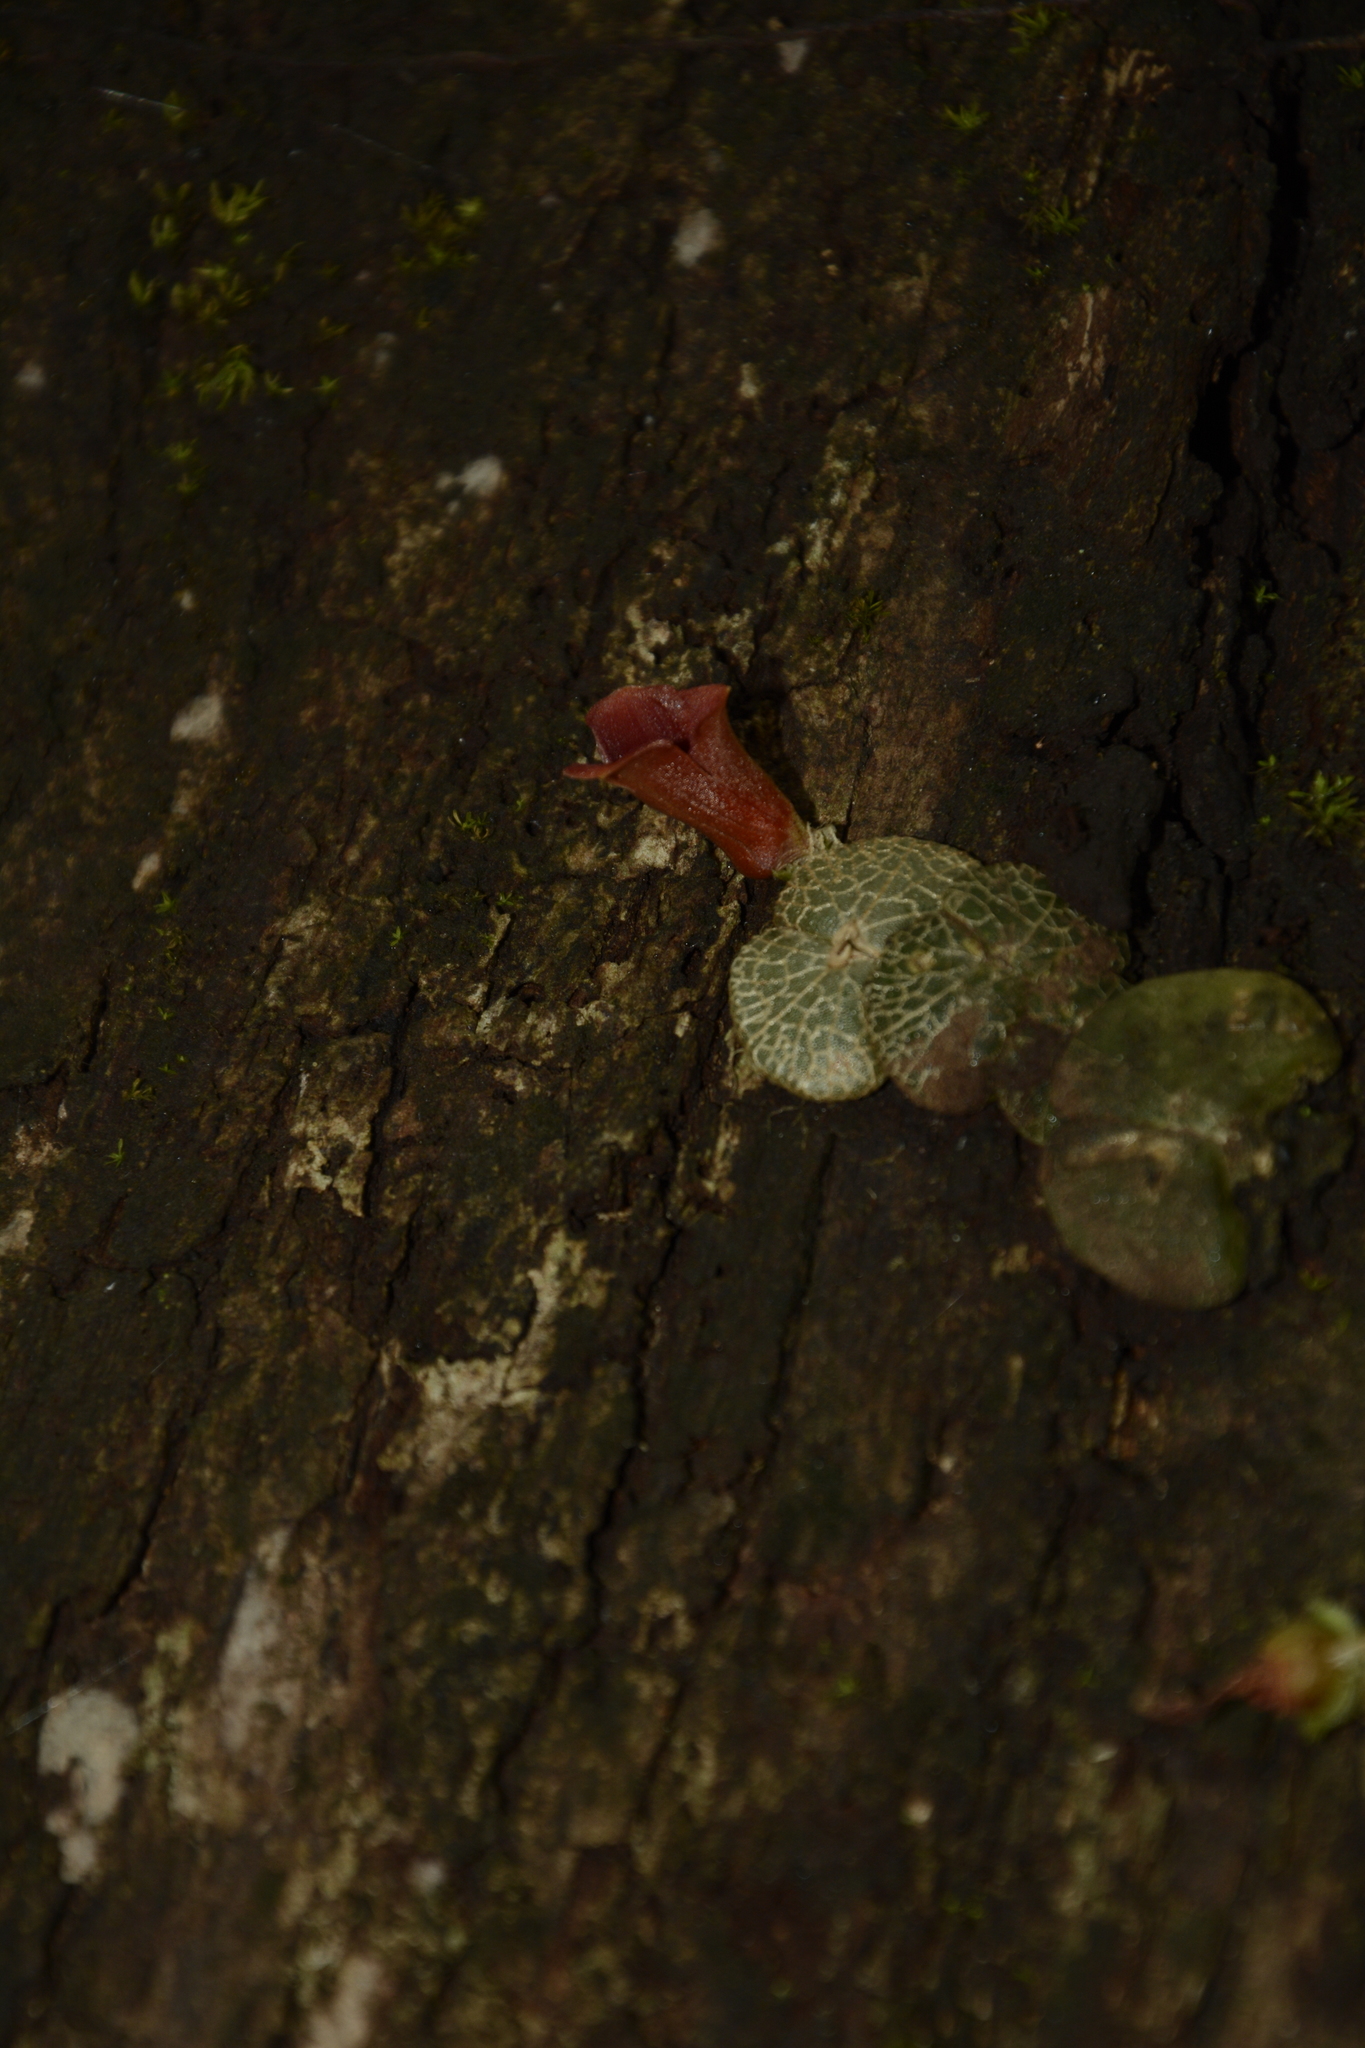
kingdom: Plantae
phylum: Tracheophyta
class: Liliopsida
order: Asparagales
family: Orchidaceae
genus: Porpax
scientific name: Porpax reticulata
